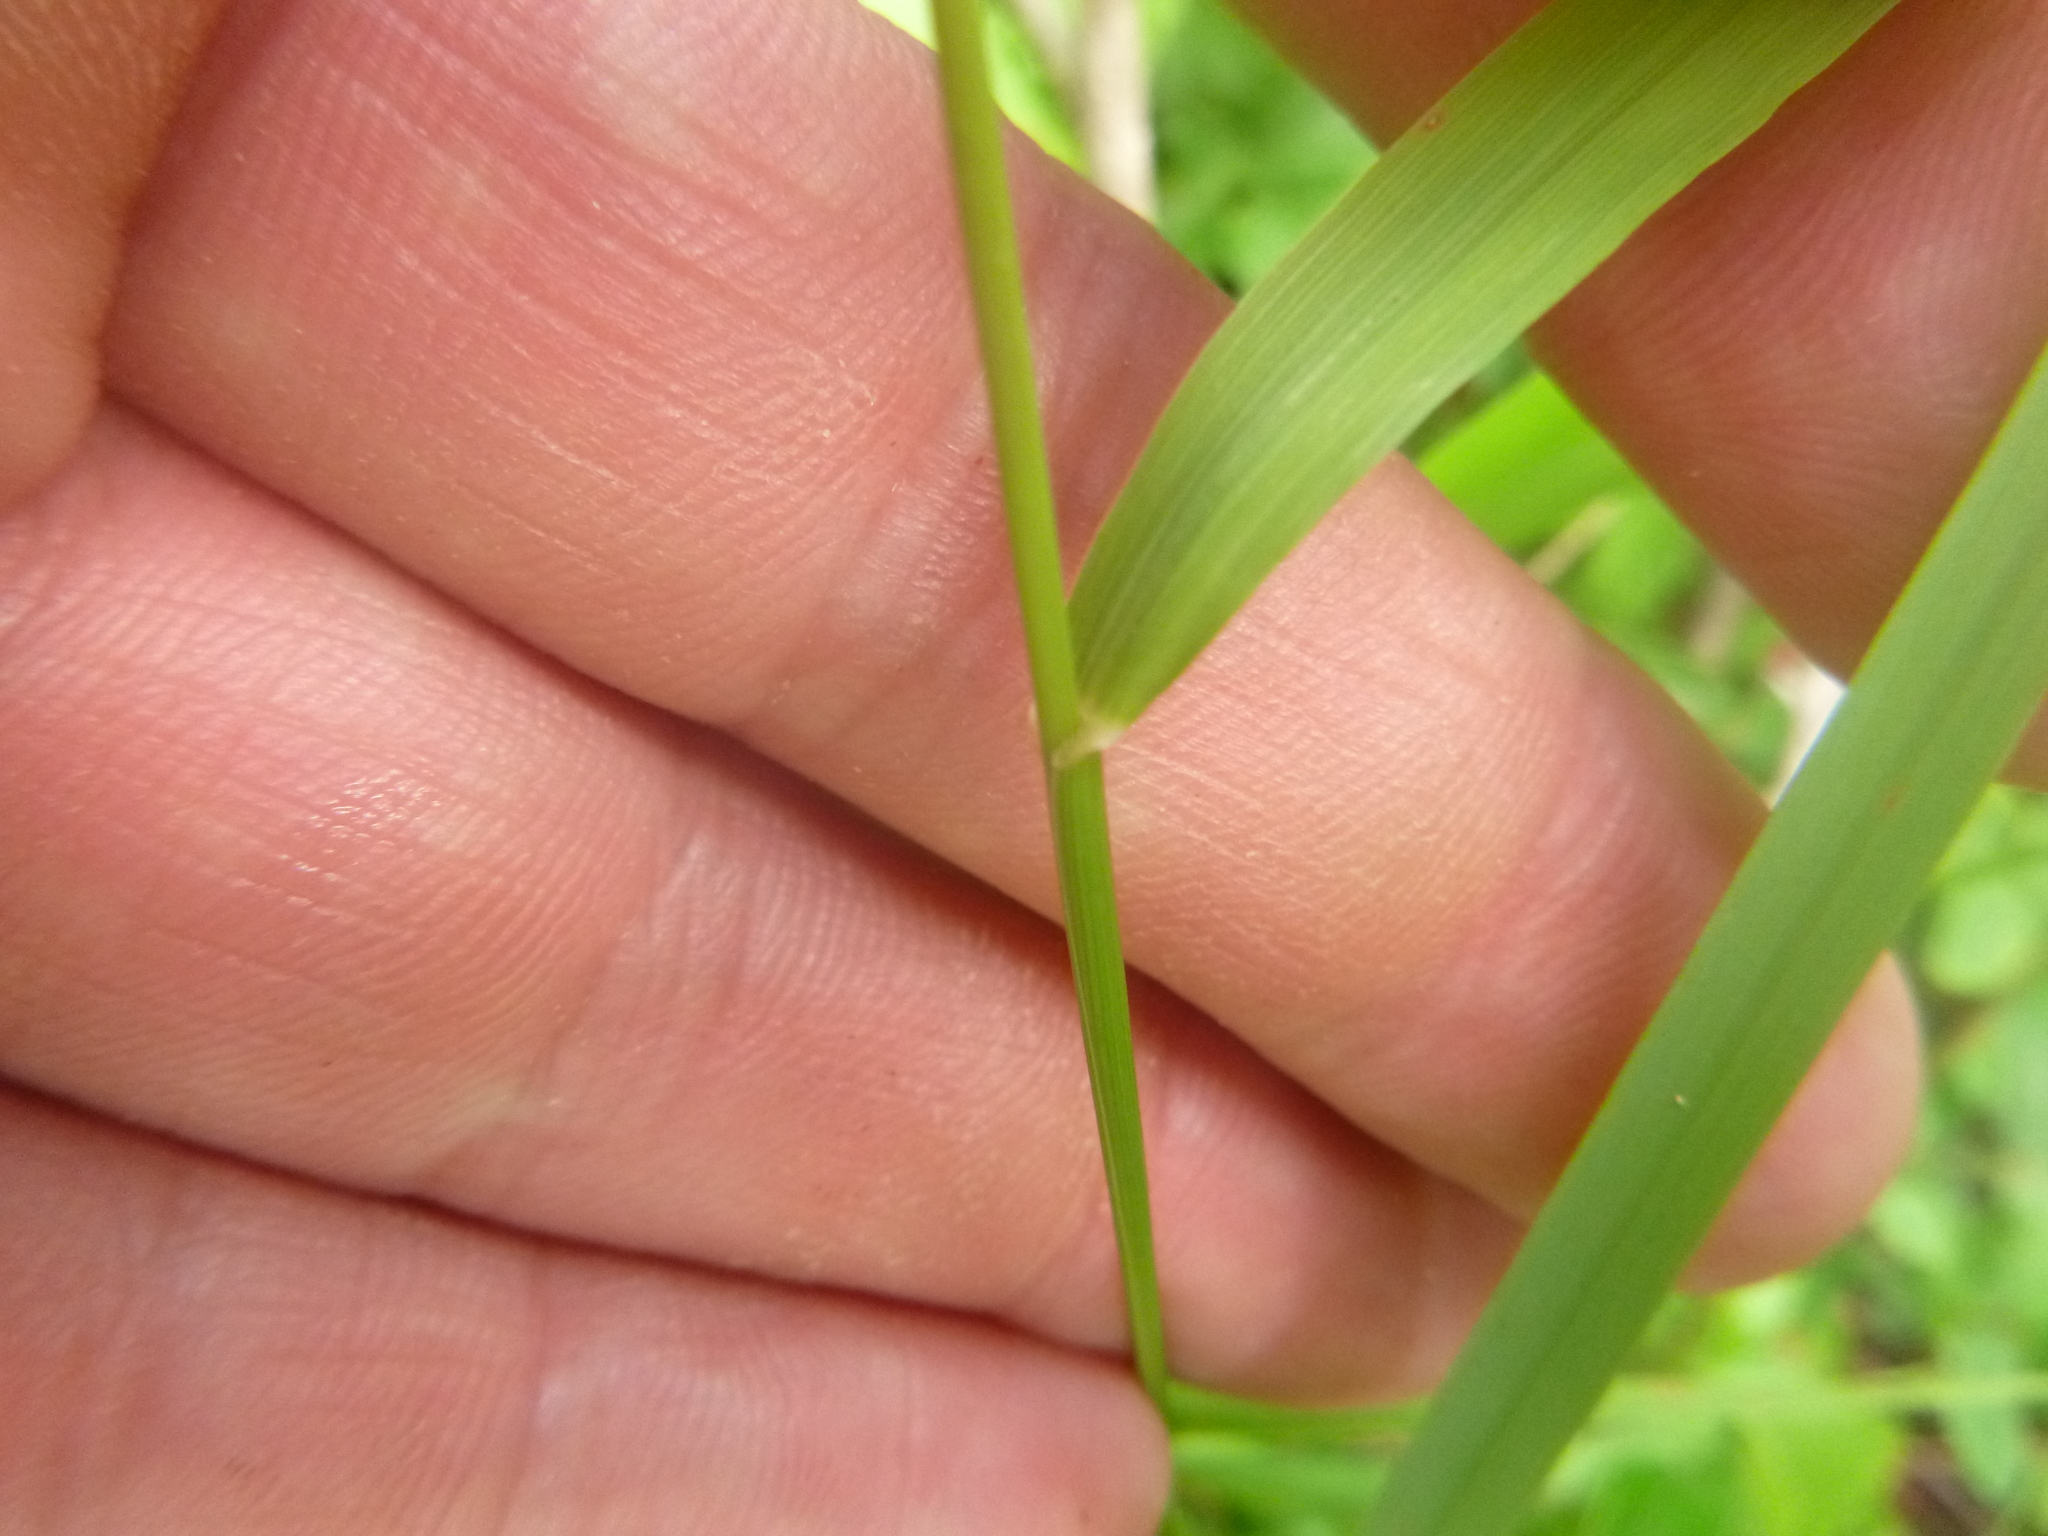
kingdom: Plantae
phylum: Tracheophyta
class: Liliopsida
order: Poales
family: Poaceae
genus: Chasmanthium
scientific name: Chasmanthium laxum
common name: Slender chasmanthium
